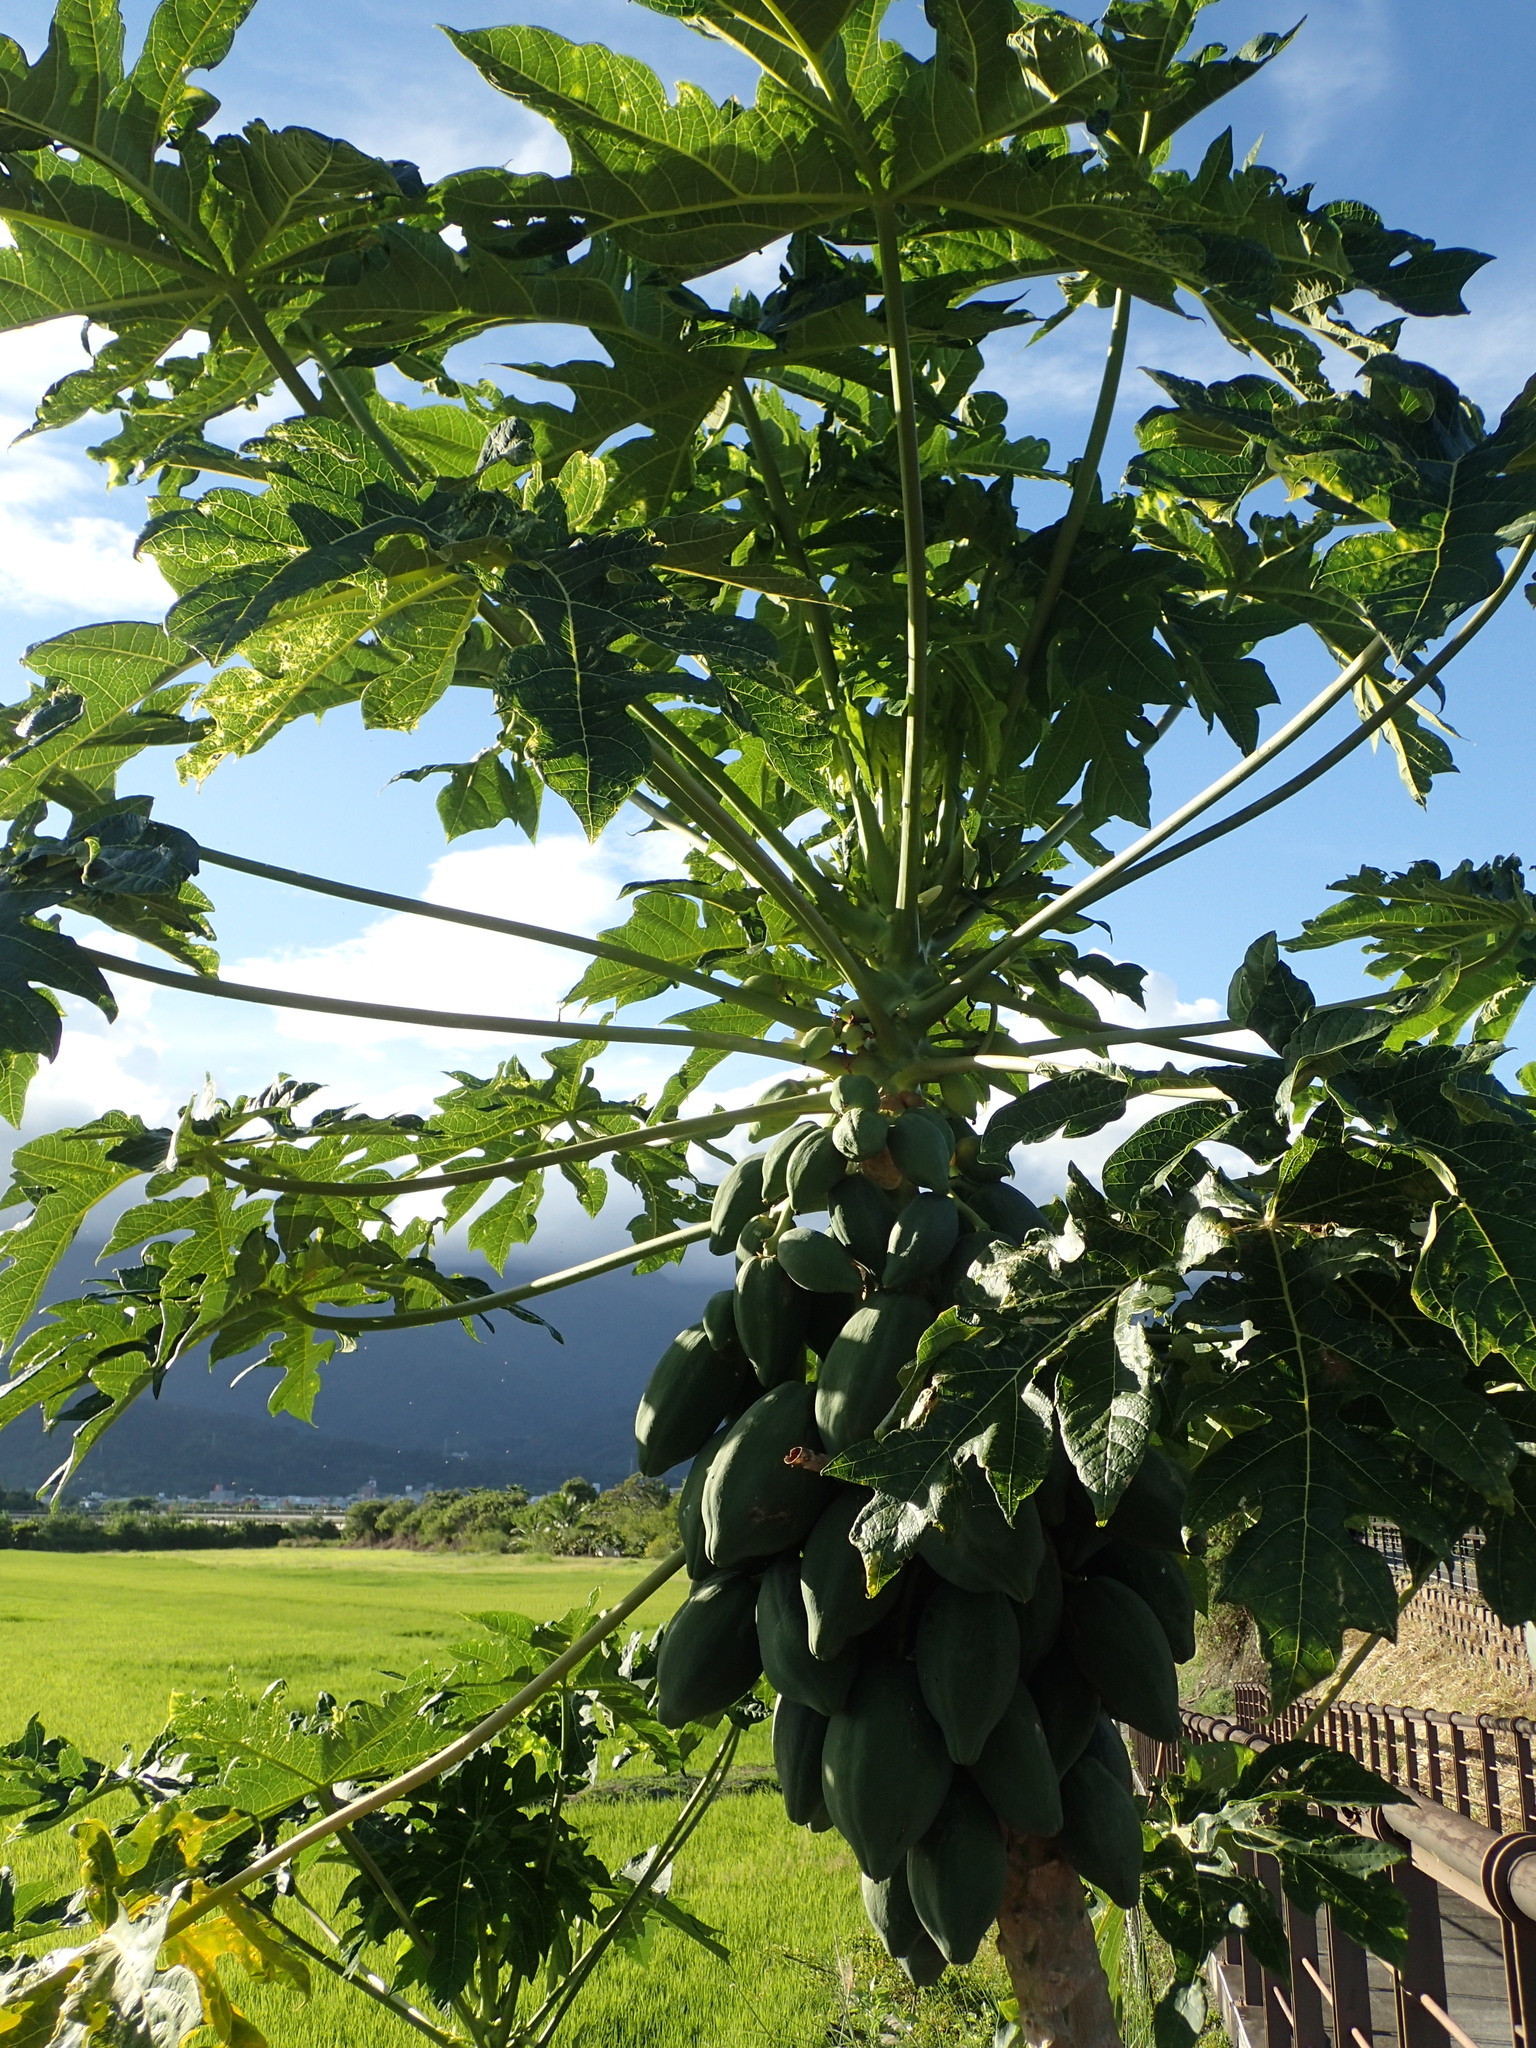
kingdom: Plantae
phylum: Tracheophyta
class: Magnoliopsida
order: Brassicales
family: Caricaceae
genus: Carica
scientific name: Carica papaya
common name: Papaya
